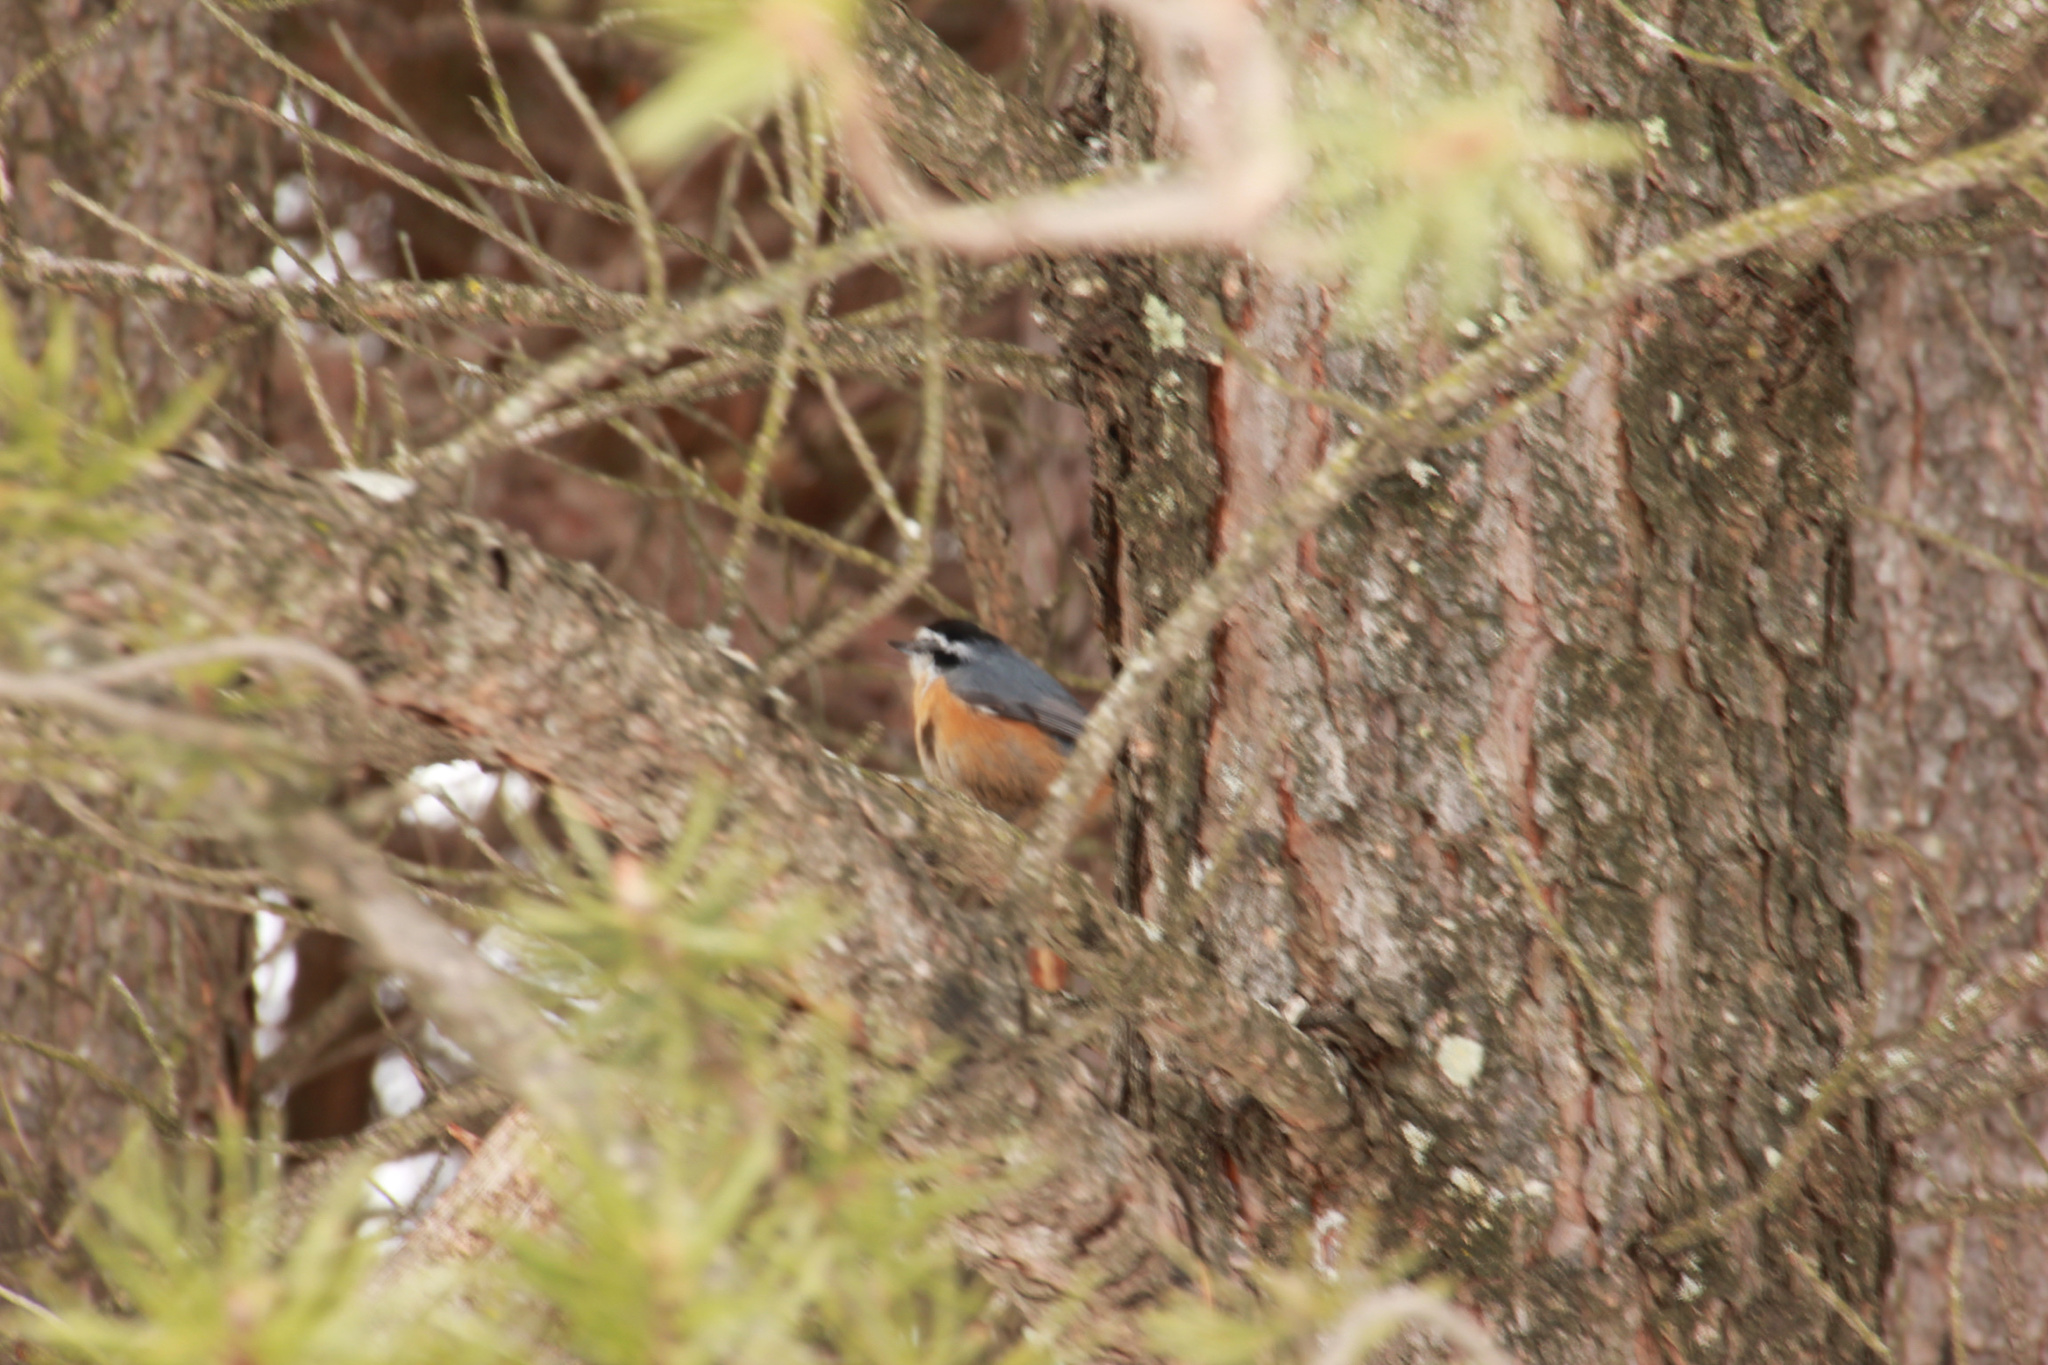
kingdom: Animalia
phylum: Chordata
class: Aves
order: Passeriformes
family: Sittidae
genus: Sitta
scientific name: Sitta canadensis
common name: Red-breasted nuthatch
